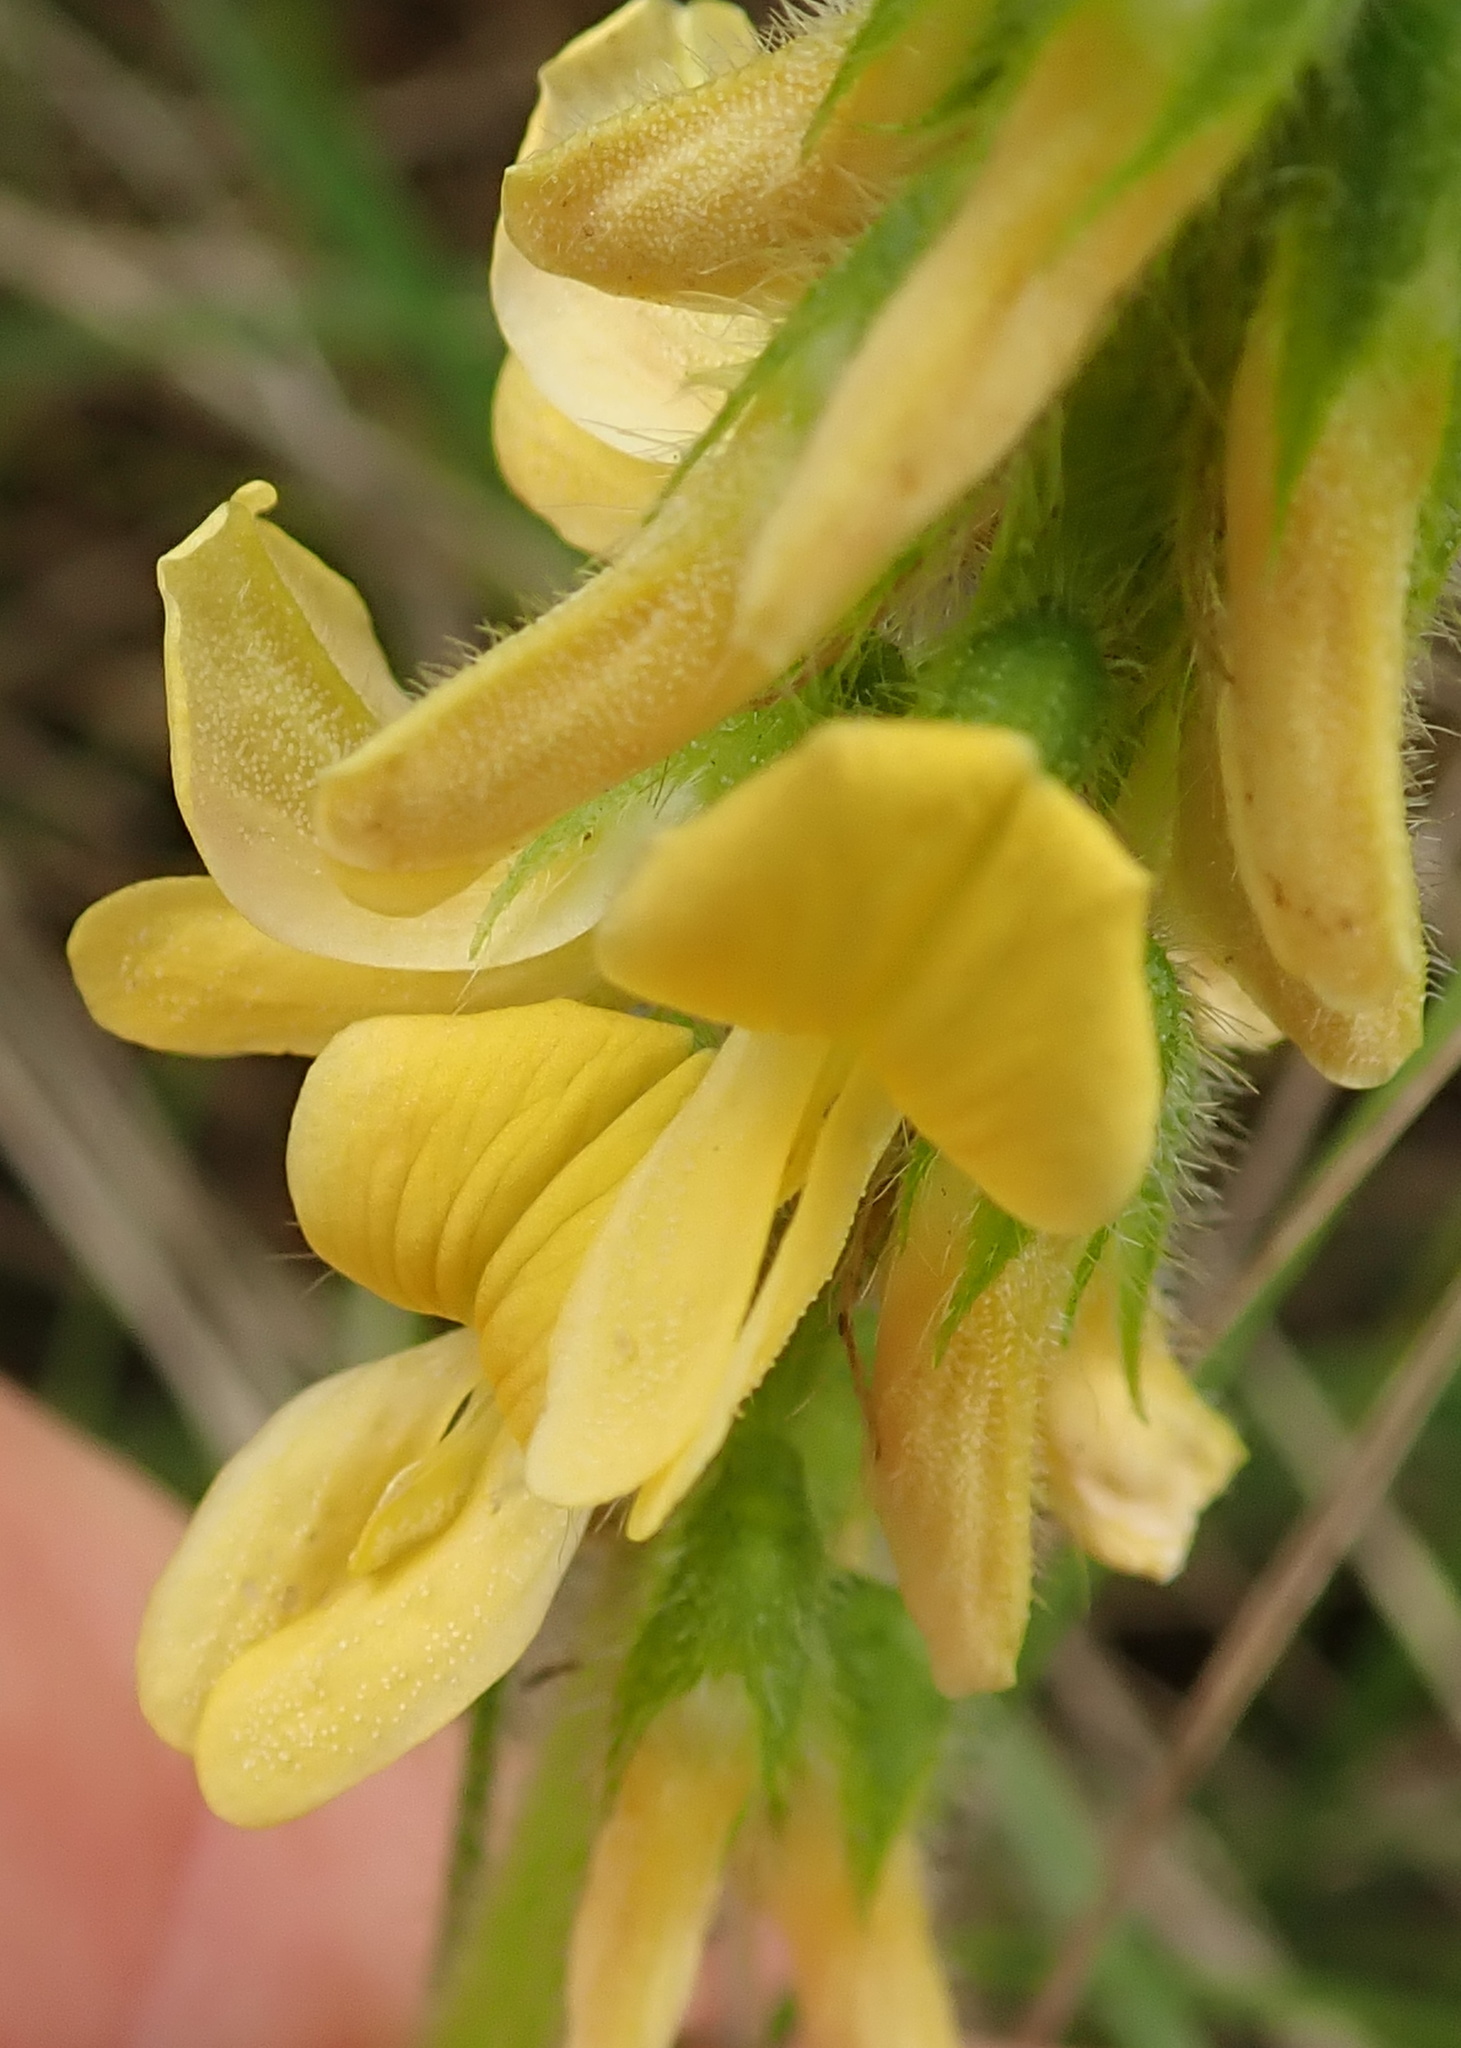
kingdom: Plantae
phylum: Tracheophyta
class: Magnoliopsida
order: Fabales
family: Fabaceae
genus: Eriosema
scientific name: Eriosema cordatum
